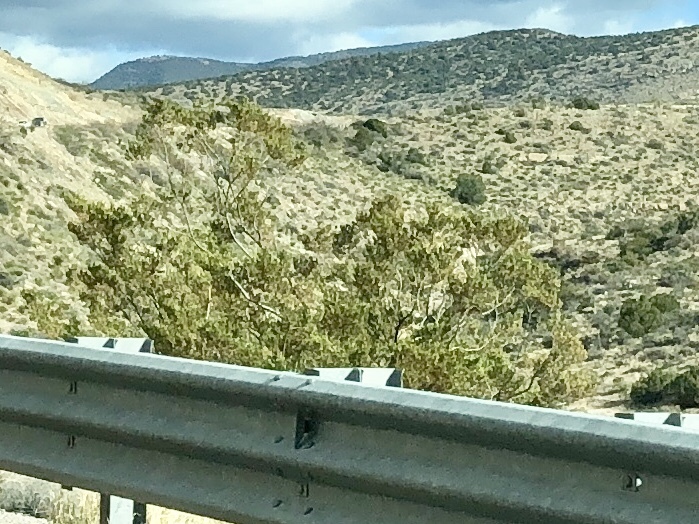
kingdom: Plantae
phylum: Tracheophyta
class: Magnoliopsida
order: Zygophyllales
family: Zygophyllaceae
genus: Larrea
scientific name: Larrea tridentata
